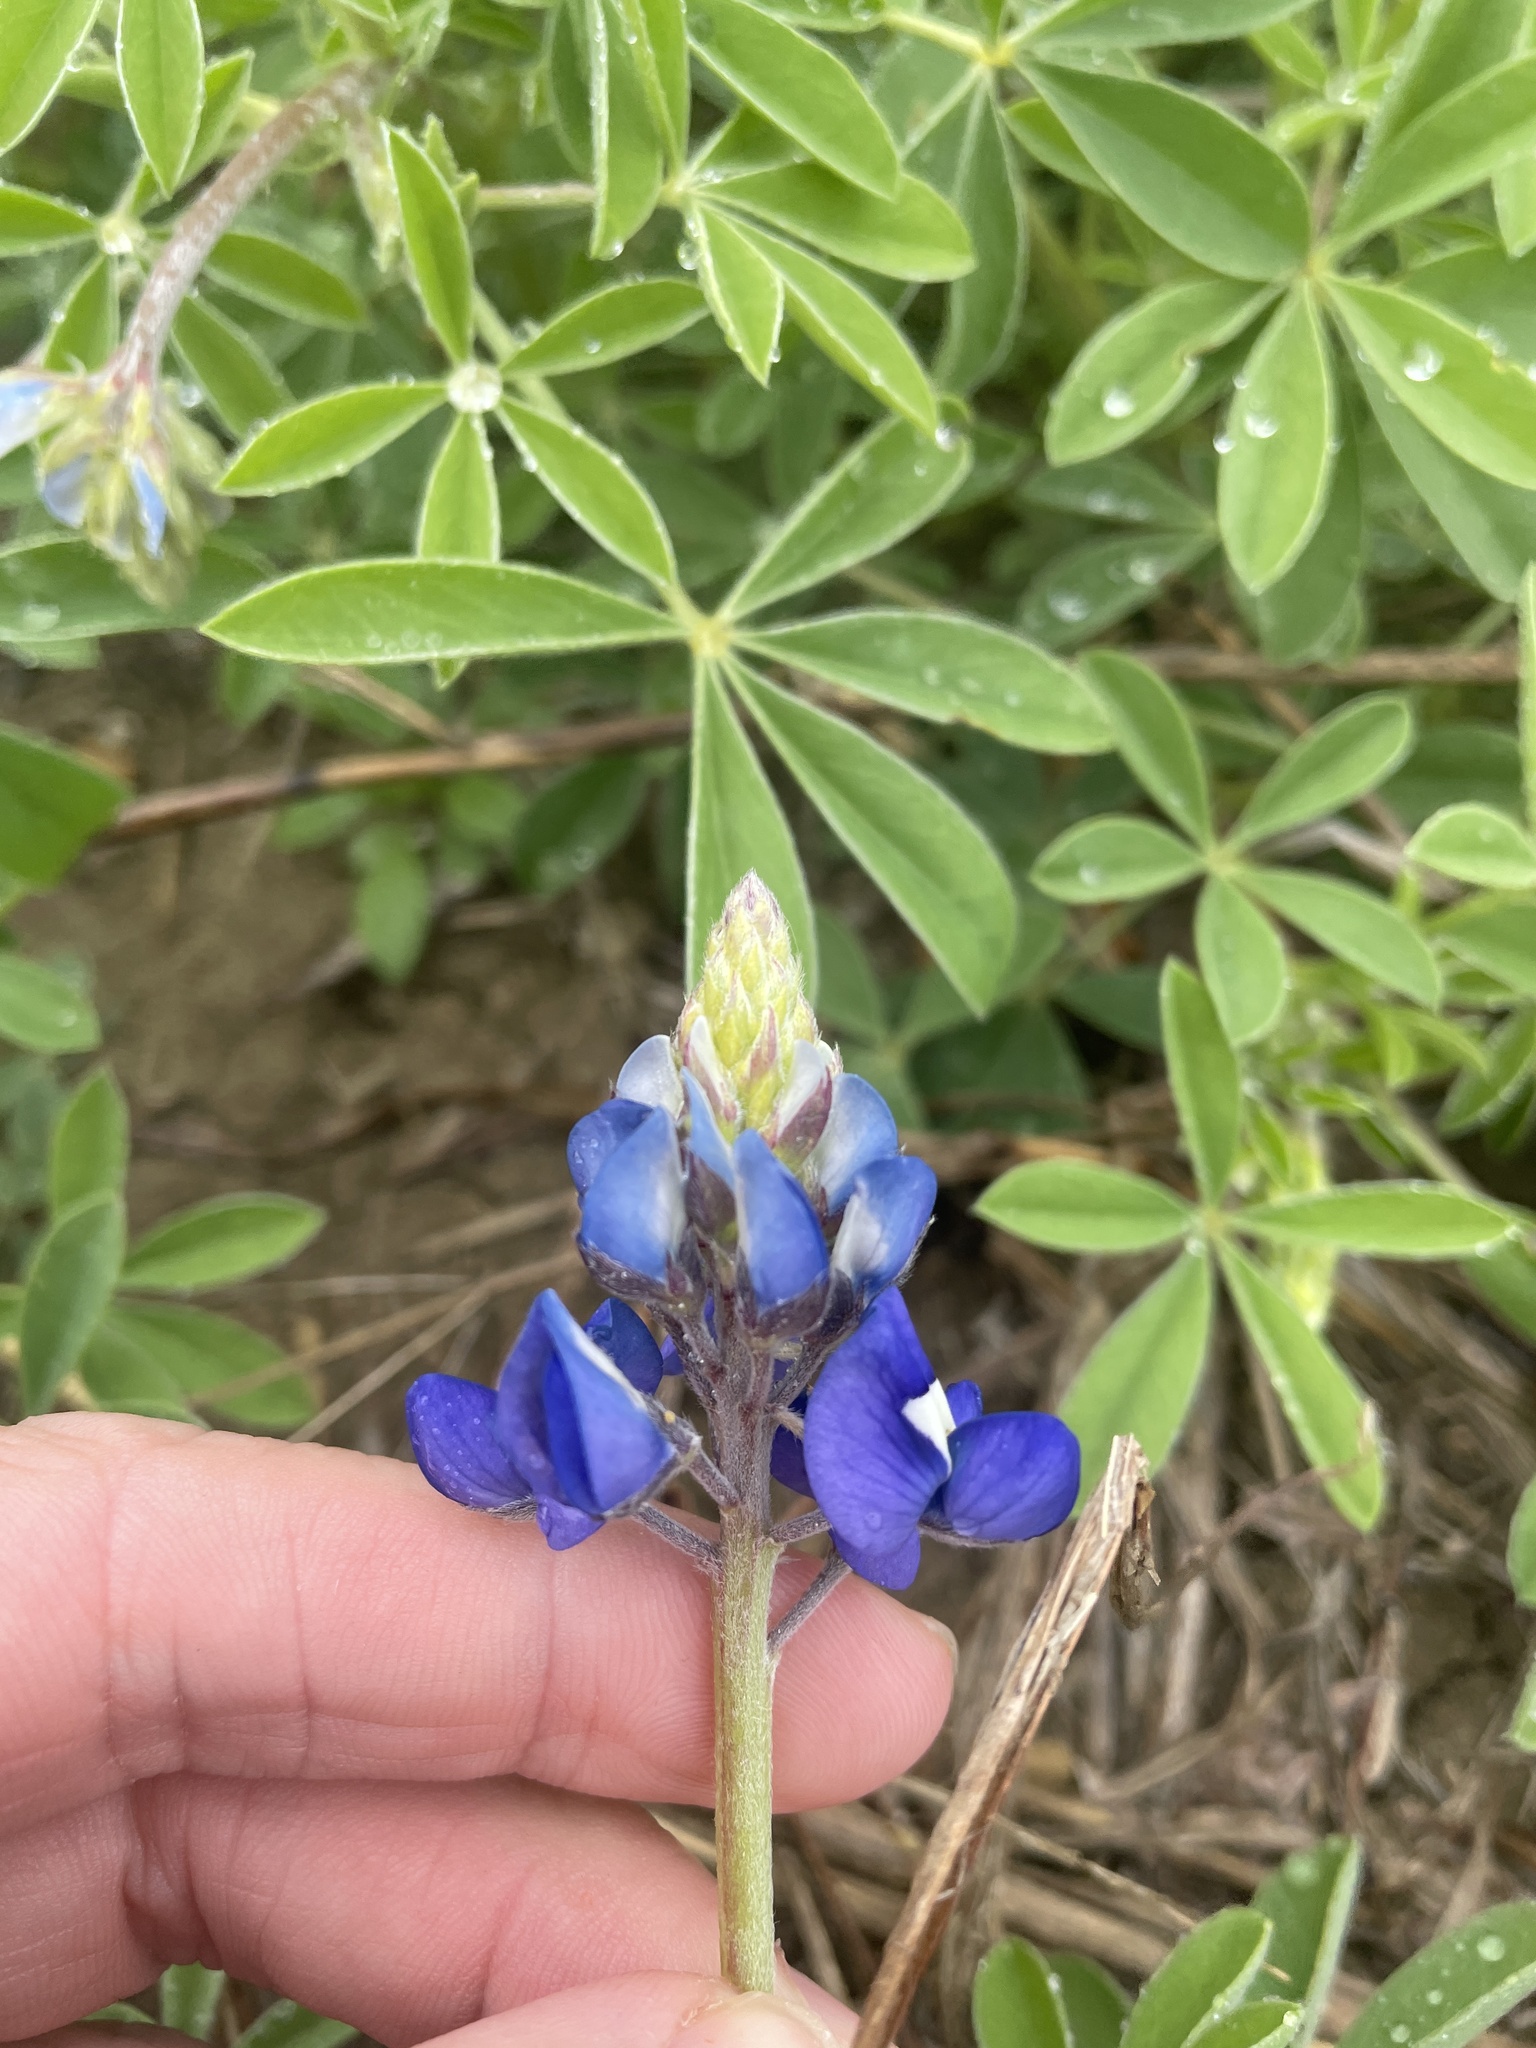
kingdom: Plantae
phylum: Tracheophyta
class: Magnoliopsida
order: Fabales
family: Fabaceae
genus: Lupinus
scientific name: Lupinus texensis
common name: Texas bluebonnet
